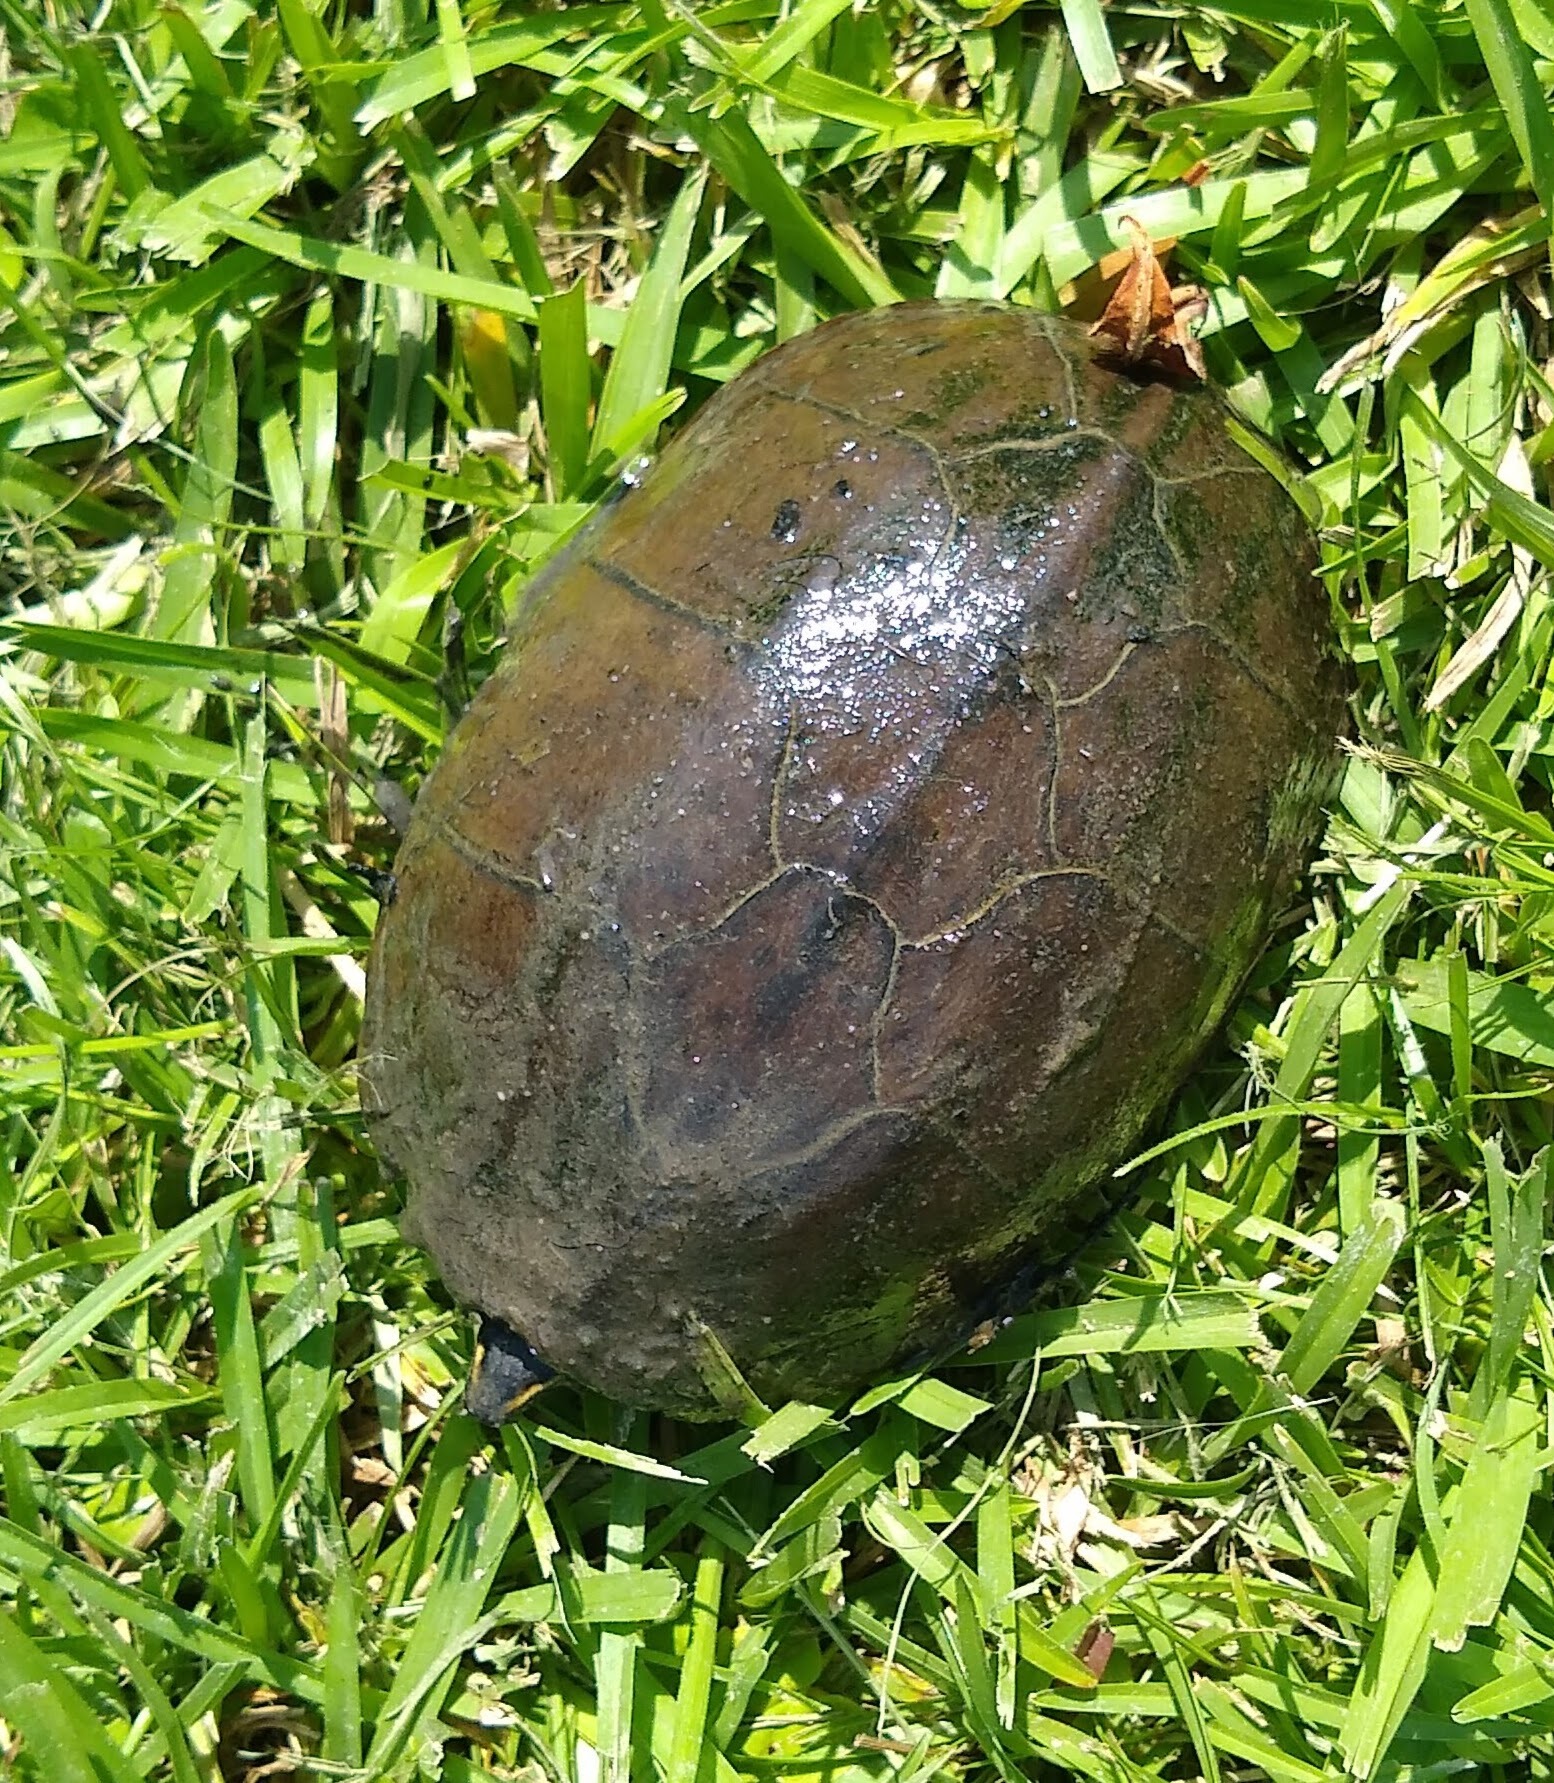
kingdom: Animalia
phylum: Chordata
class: Testudines
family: Kinosternidae
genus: Sternotherus
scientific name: Sternotherus odoratus
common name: Common musk turtle
